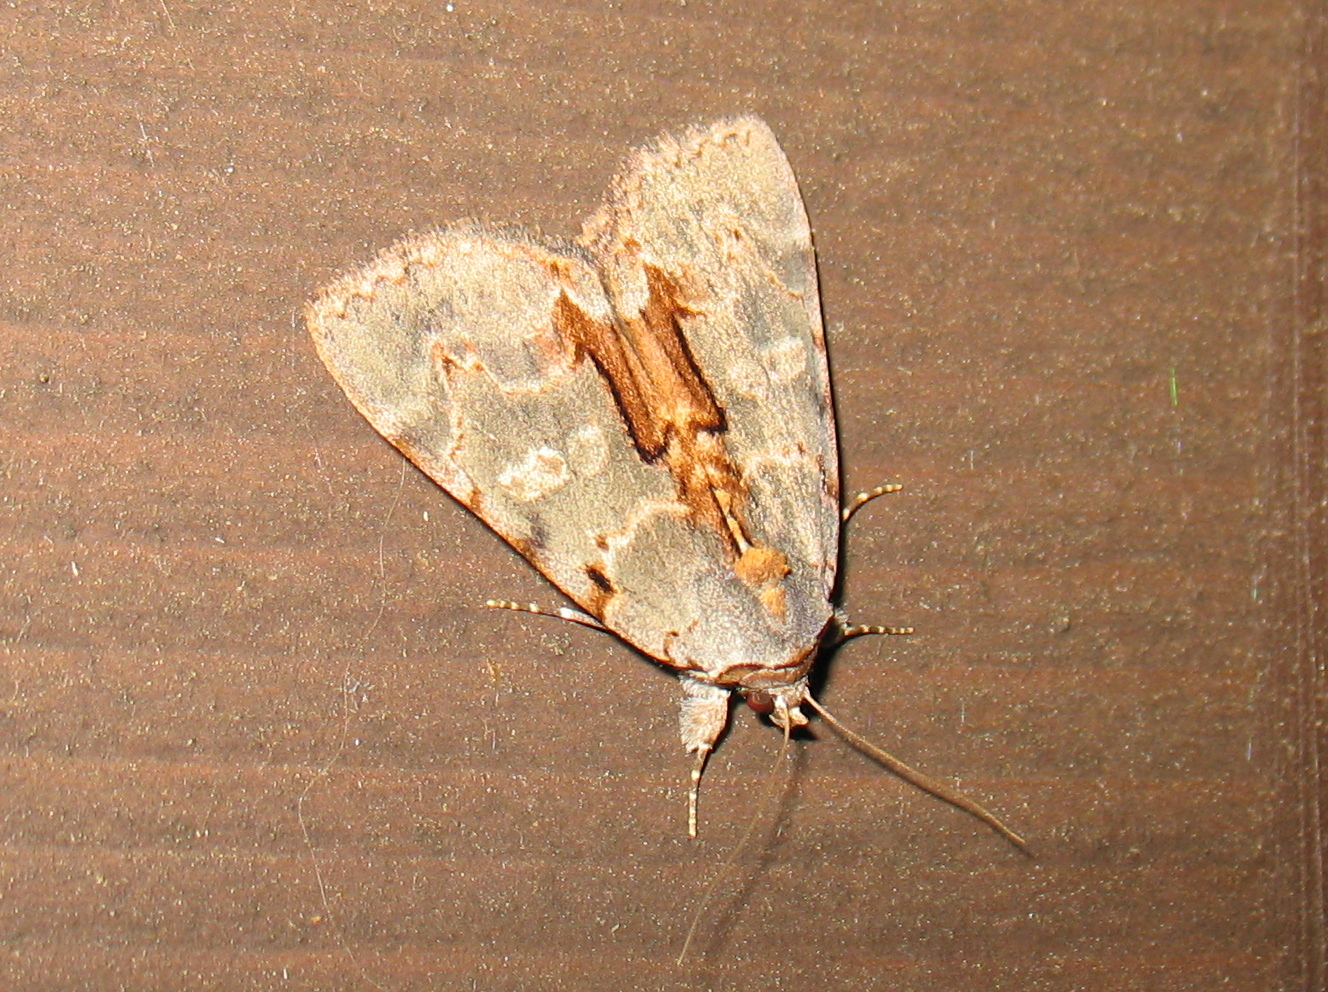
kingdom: Animalia
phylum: Arthropoda
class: Insecta
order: Lepidoptera
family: Erebidae
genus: Catocala
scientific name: Catocala grynea
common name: Woody underwing
